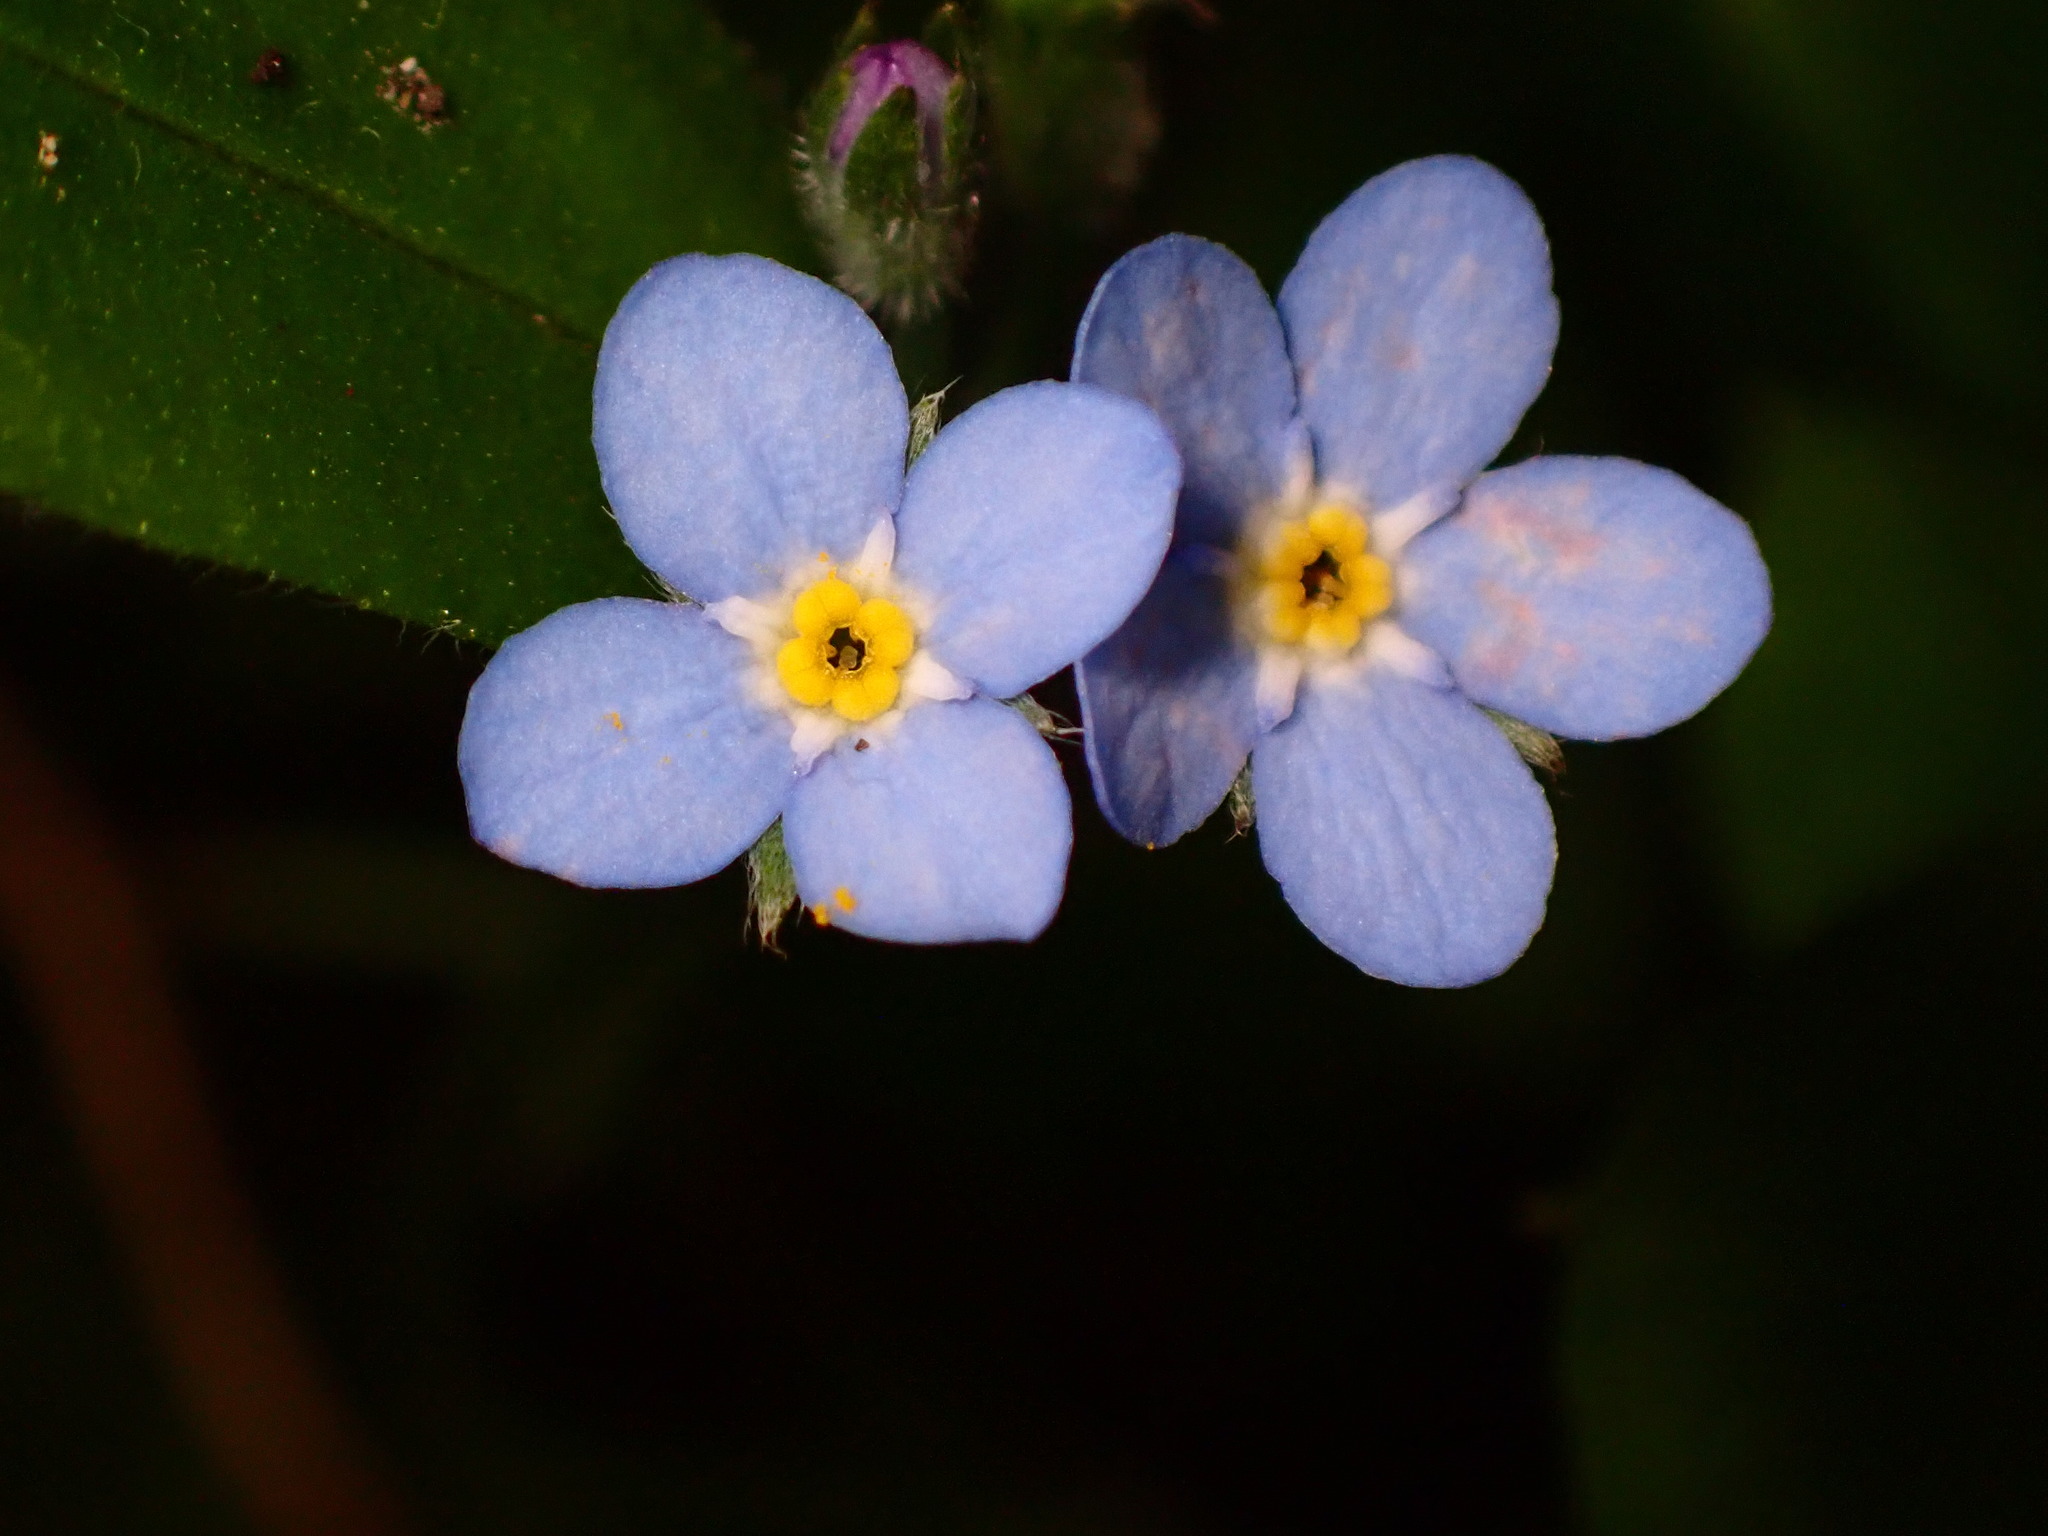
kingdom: Plantae
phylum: Tracheophyta
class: Magnoliopsida
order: Boraginales
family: Boraginaceae
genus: Myosotis
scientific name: Myosotis latifolia
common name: Broadleaf forget-me-not
